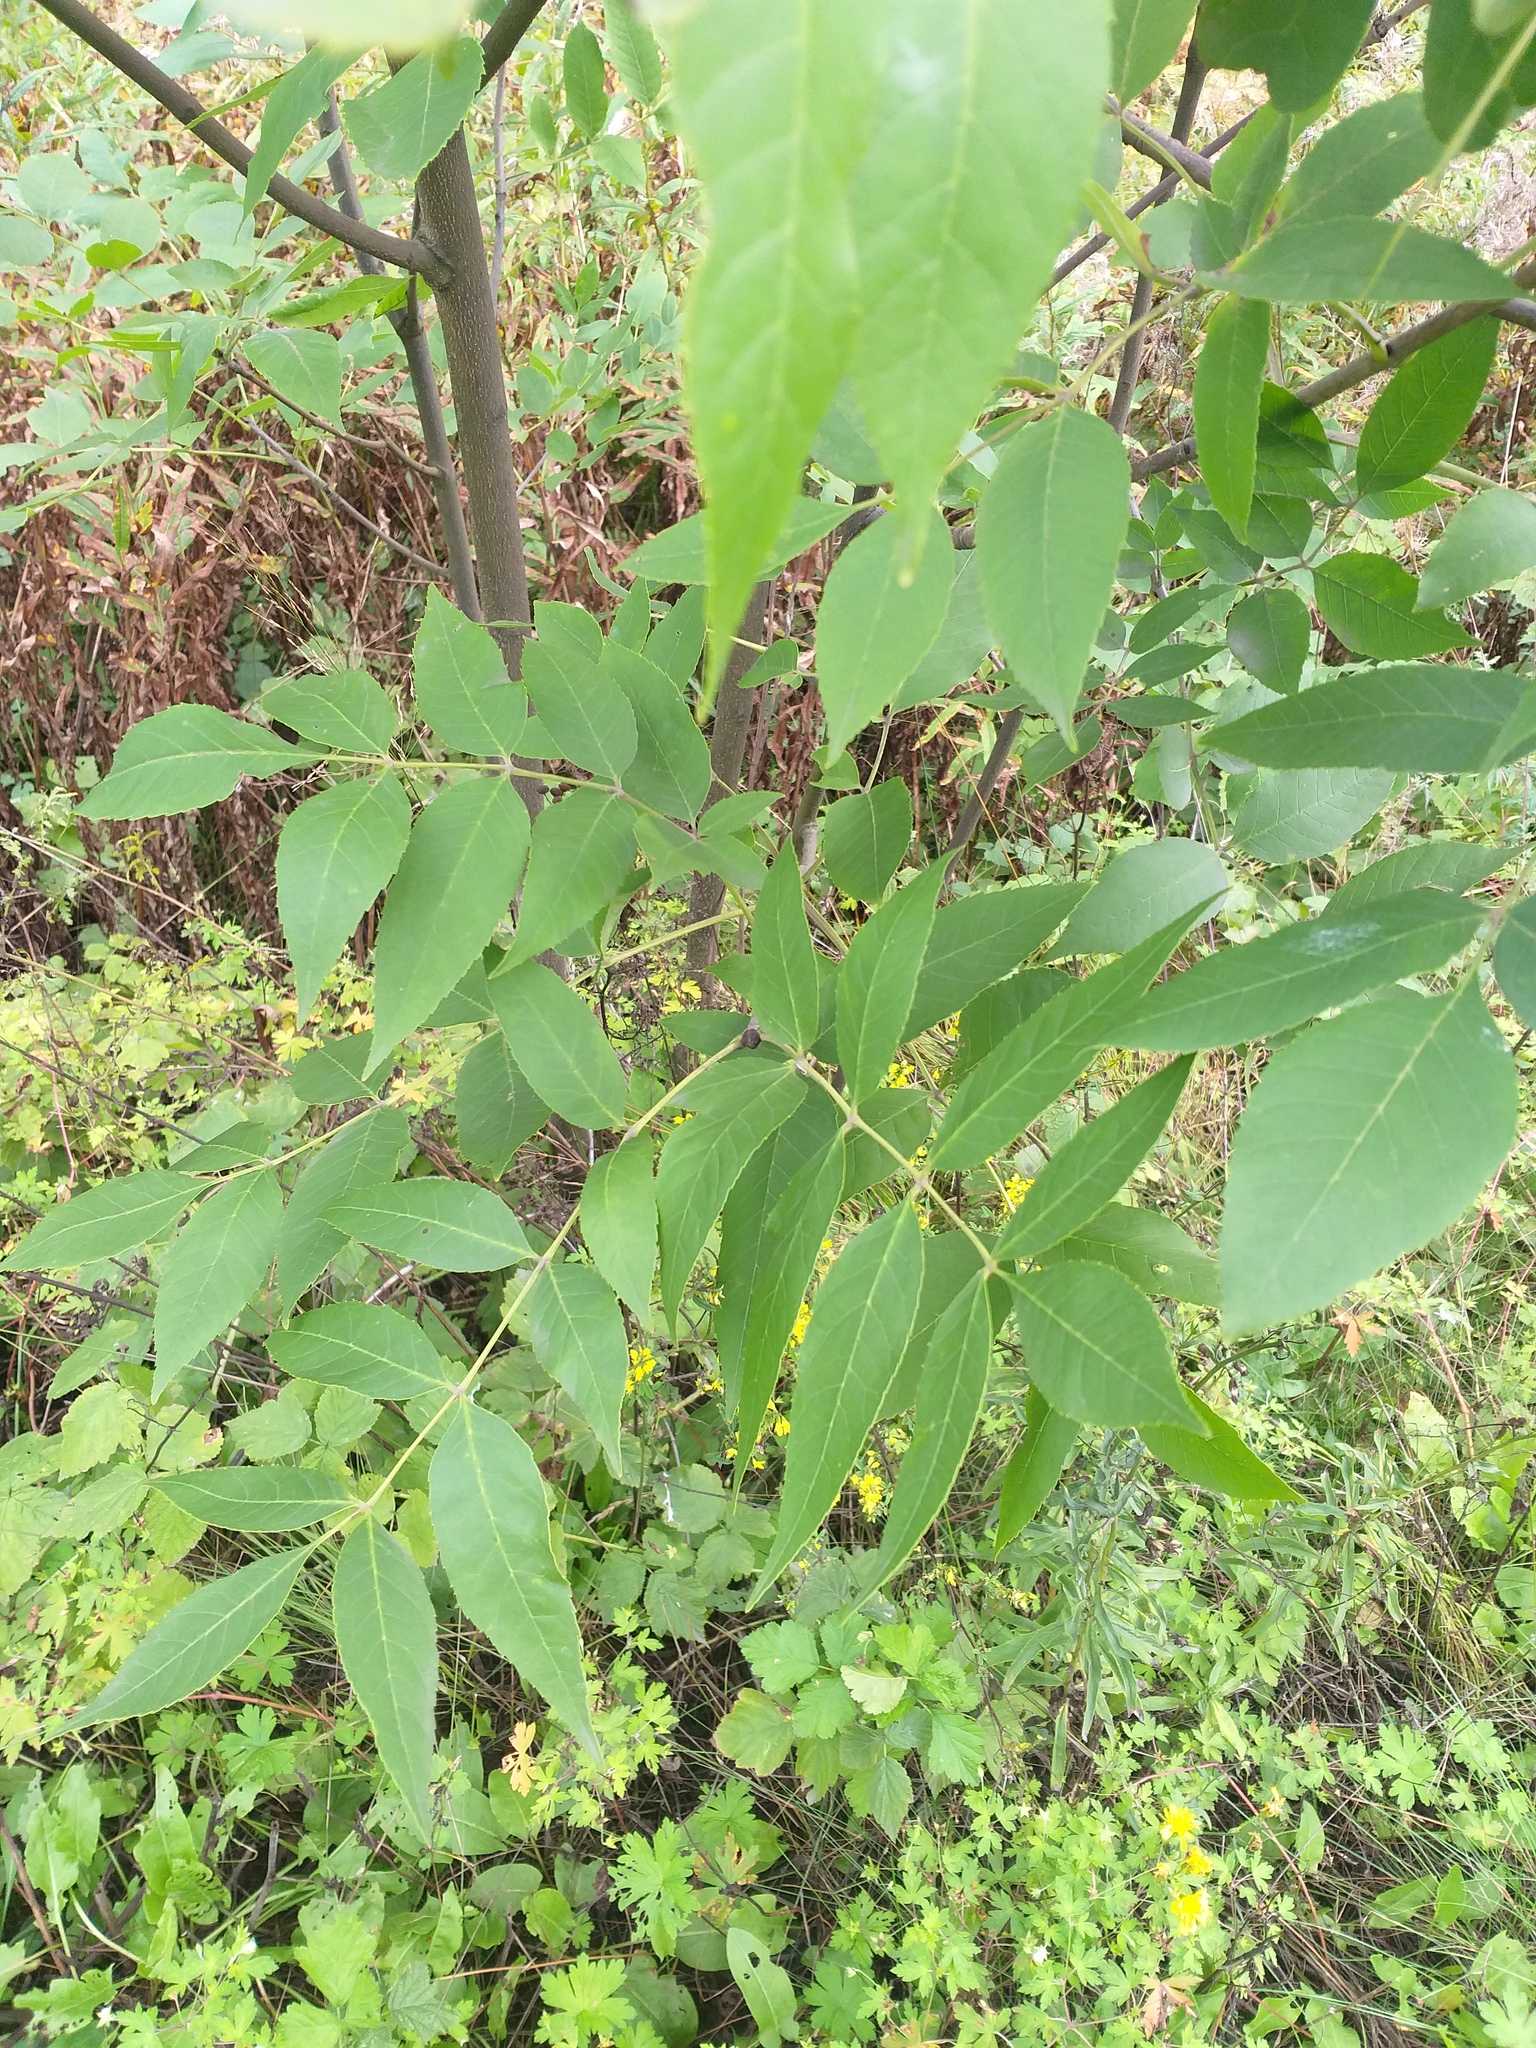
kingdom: Plantae
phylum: Tracheophyta
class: Magnoliopsida
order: Lamiales
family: Oleaceae
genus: Fraxinus
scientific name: Fraxinus excelsior
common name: European ash
